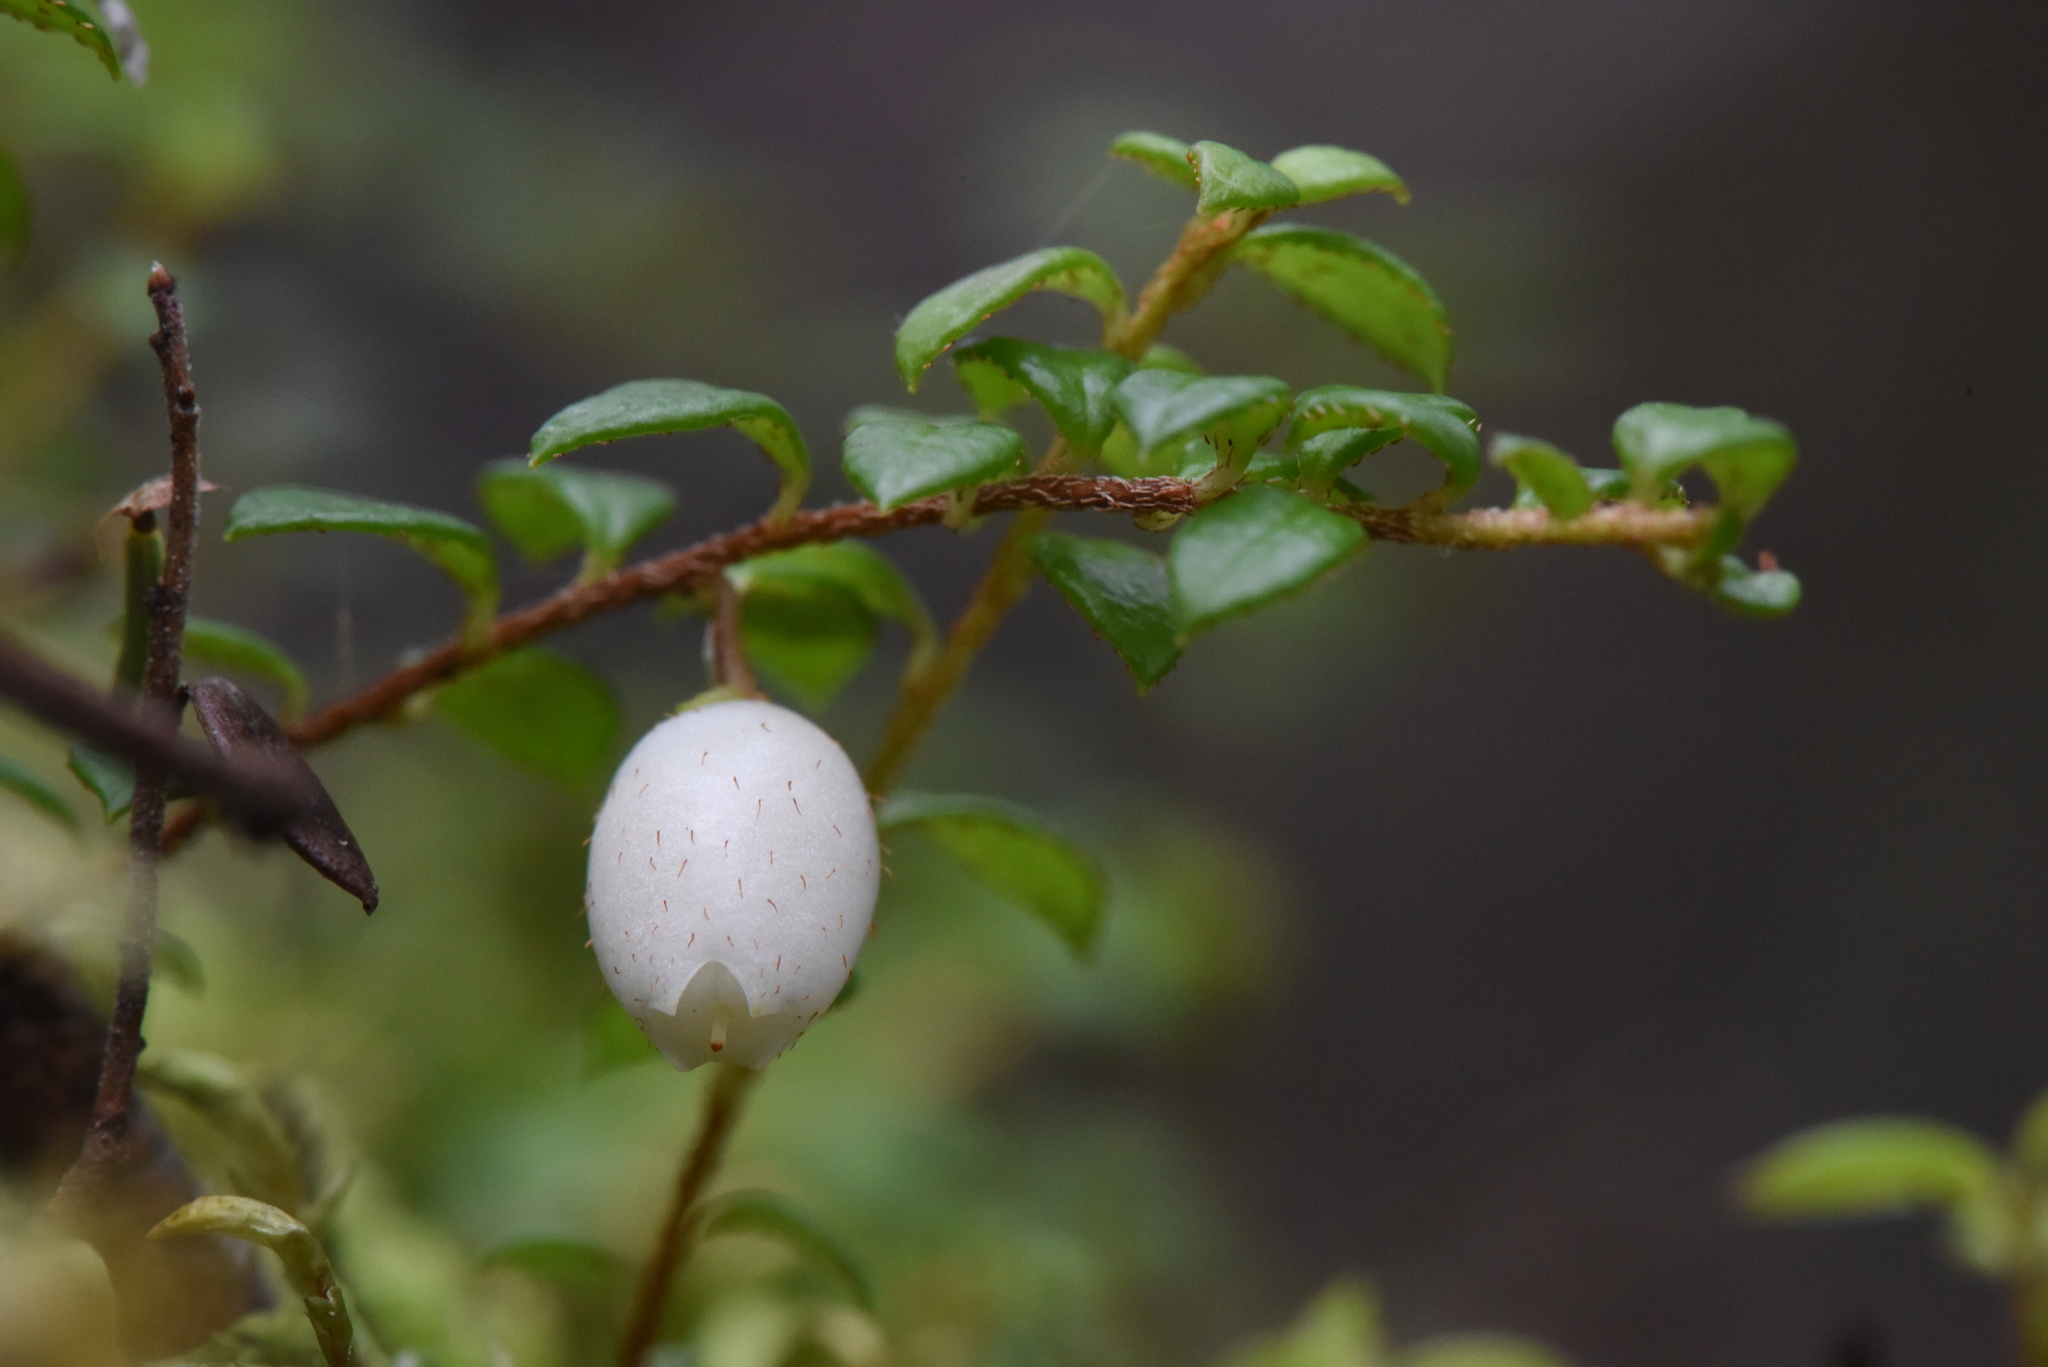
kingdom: Plantae
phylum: Tracheophyta
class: Magnoliopsida
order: Ericales
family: Ericaceae
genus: Gaultheria
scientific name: Gaultheria hispidula
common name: Cancer wintergreen
